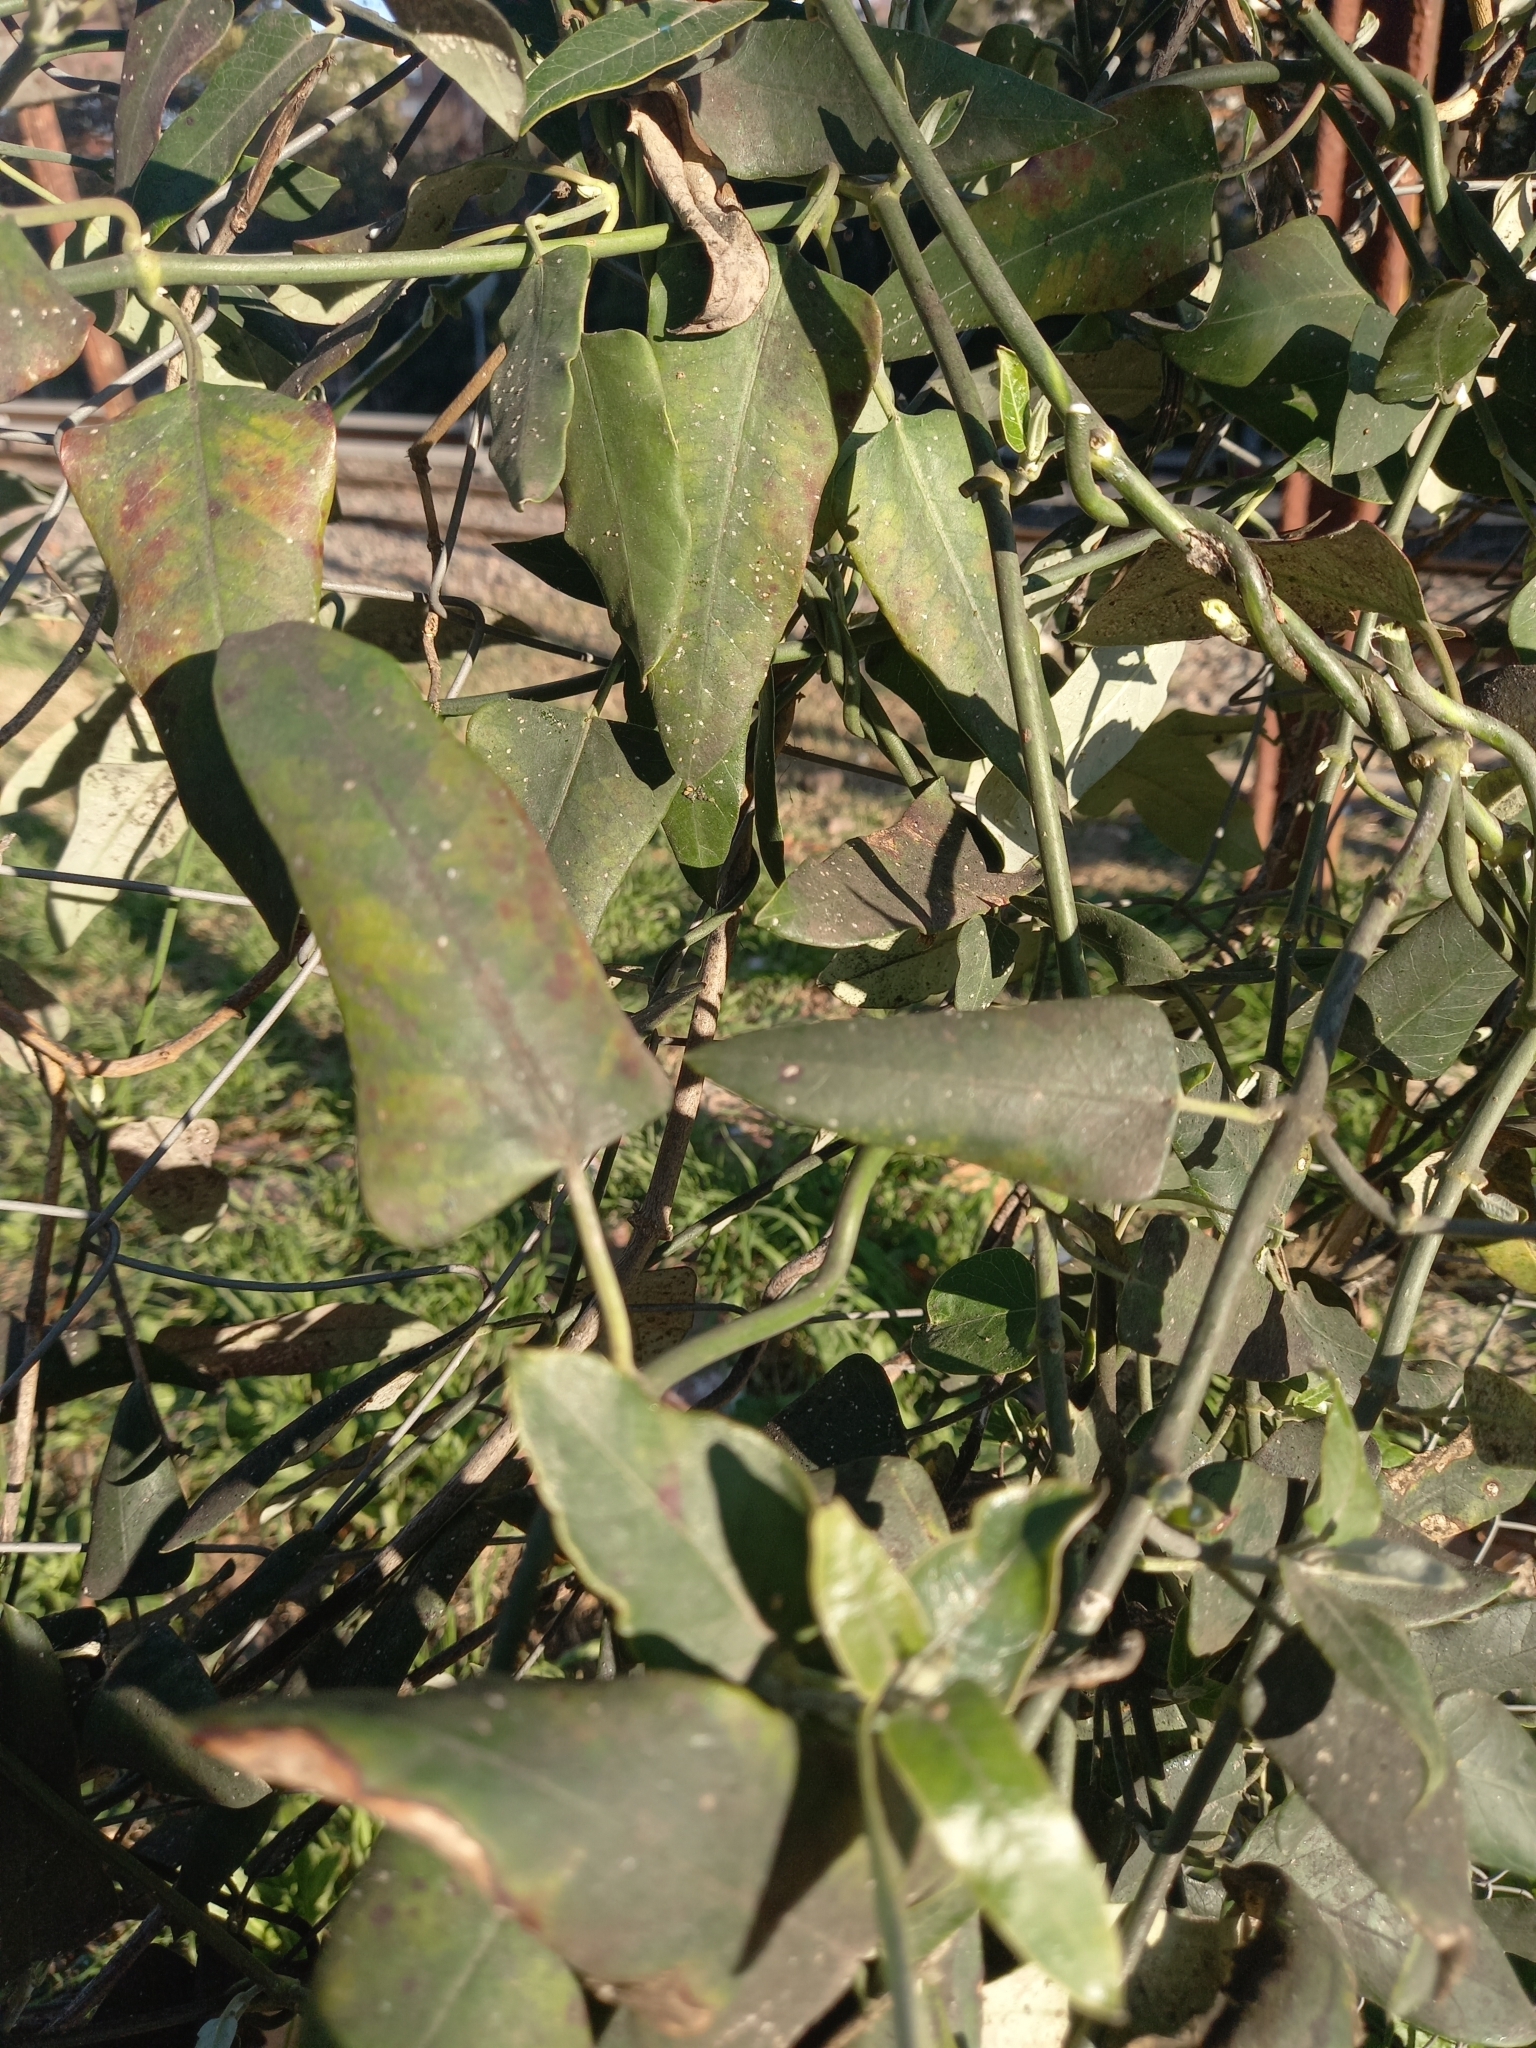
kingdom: Plantae
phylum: Tracheophyta
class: Magnoliopsida
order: Gentianales
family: Apocynaceae
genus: Araujia
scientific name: Araujia sericifera
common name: White bladderflower
